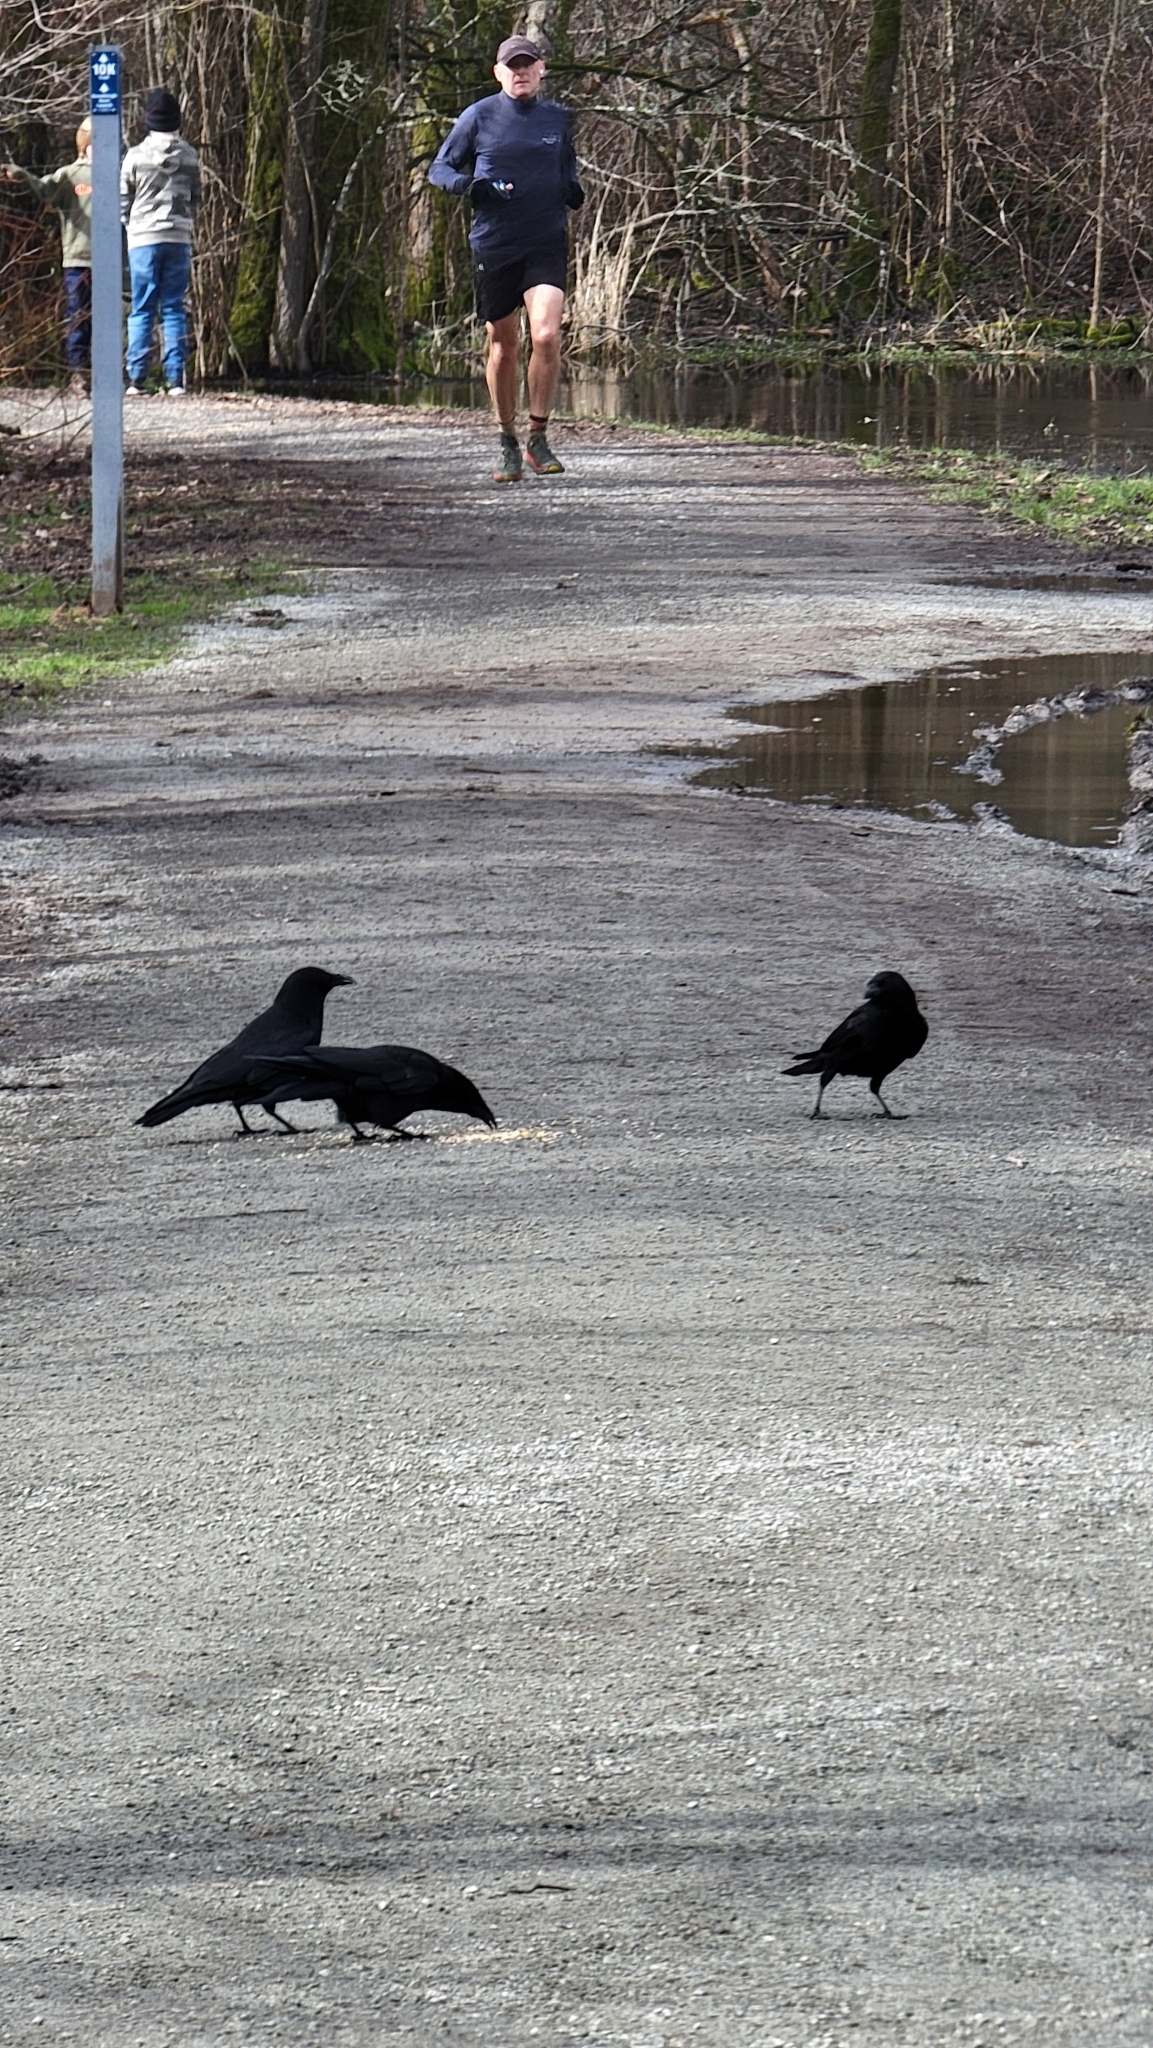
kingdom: Animalia
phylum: Chordata
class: Aves
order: Passeriformes
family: Corvidae
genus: Corvus
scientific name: Corvus brachyrhynchos
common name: American crow
